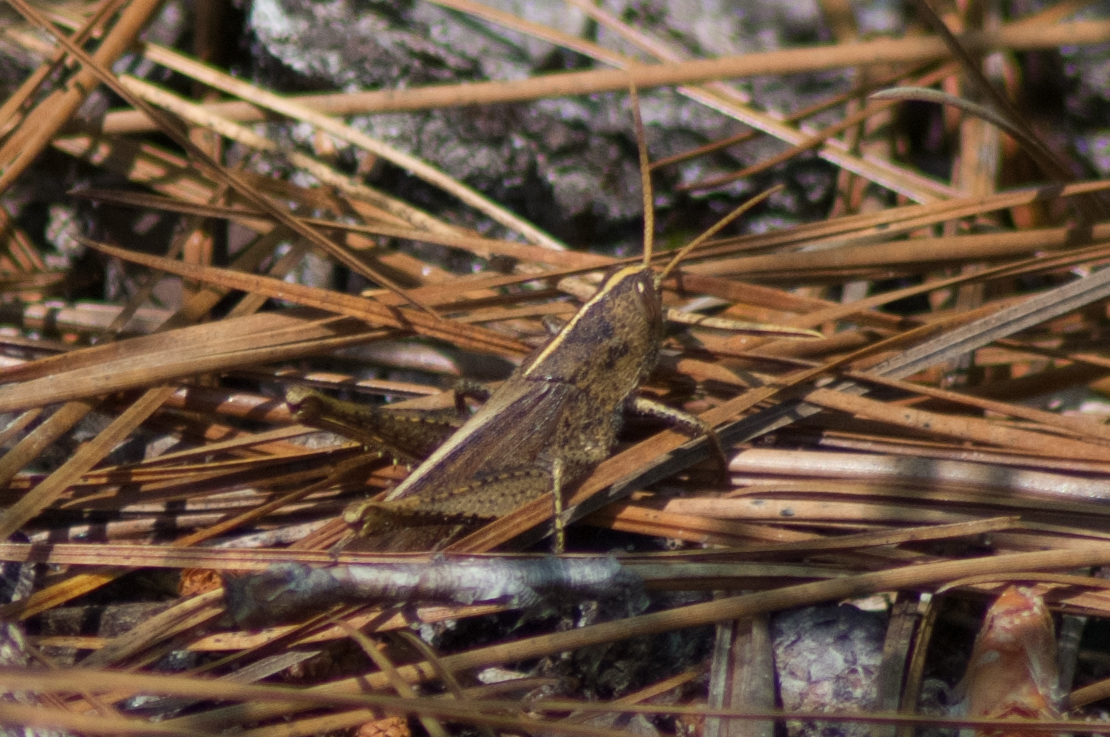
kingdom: Animalia
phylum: Arthropoda
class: Insecta
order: Orthoptera
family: Acrididae
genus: Schistocerca
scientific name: Schistocerca damnifica
